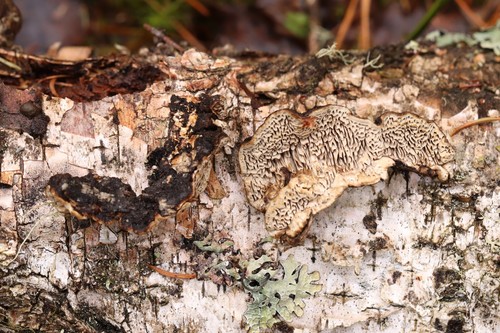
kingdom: Fungi
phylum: Basidiomycota
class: Agaricomycetes
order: Polyporales
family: Polyporaceae
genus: Podofomes
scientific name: Podofomes mollis
